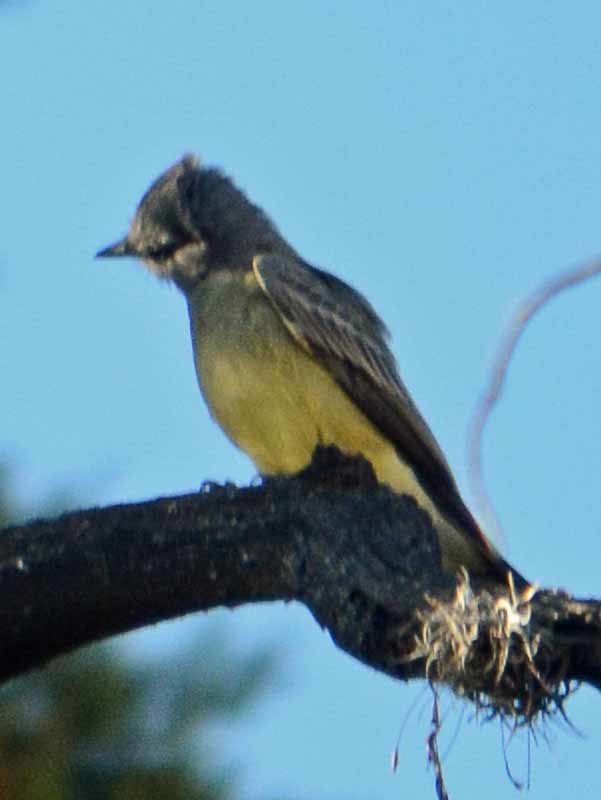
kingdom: Animalia
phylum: Chordata
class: Aves
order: Passeriformes
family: Tyrannidae
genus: Tyrannus
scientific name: Tyrannus vociferans
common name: Cassin's kingbird
